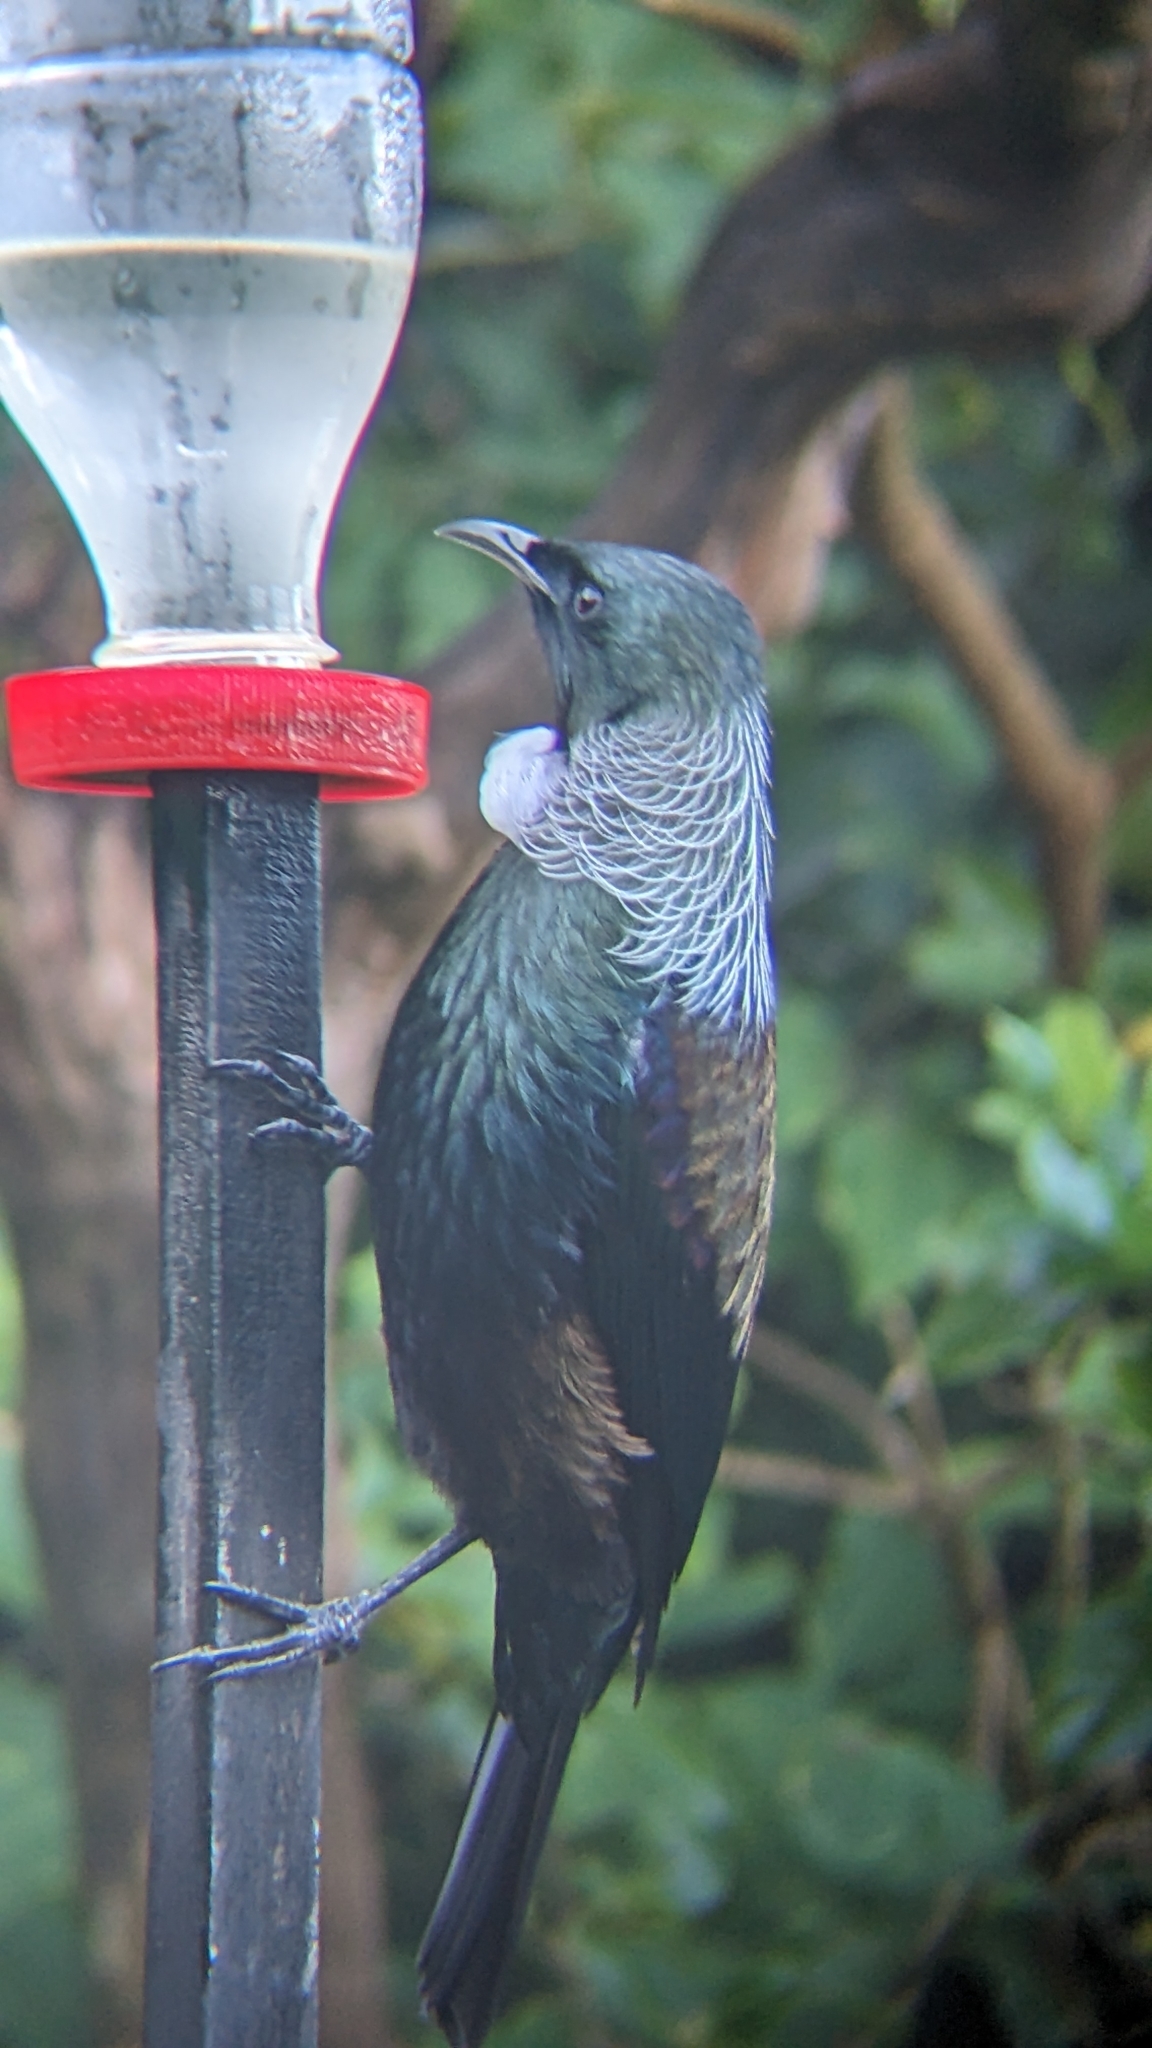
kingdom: Animalia
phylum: Chordata
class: Aves
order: Passeriformes
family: Meliphagidae
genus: Prosthemadera
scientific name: Prosthemadera novaeseelandiae
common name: Tui
